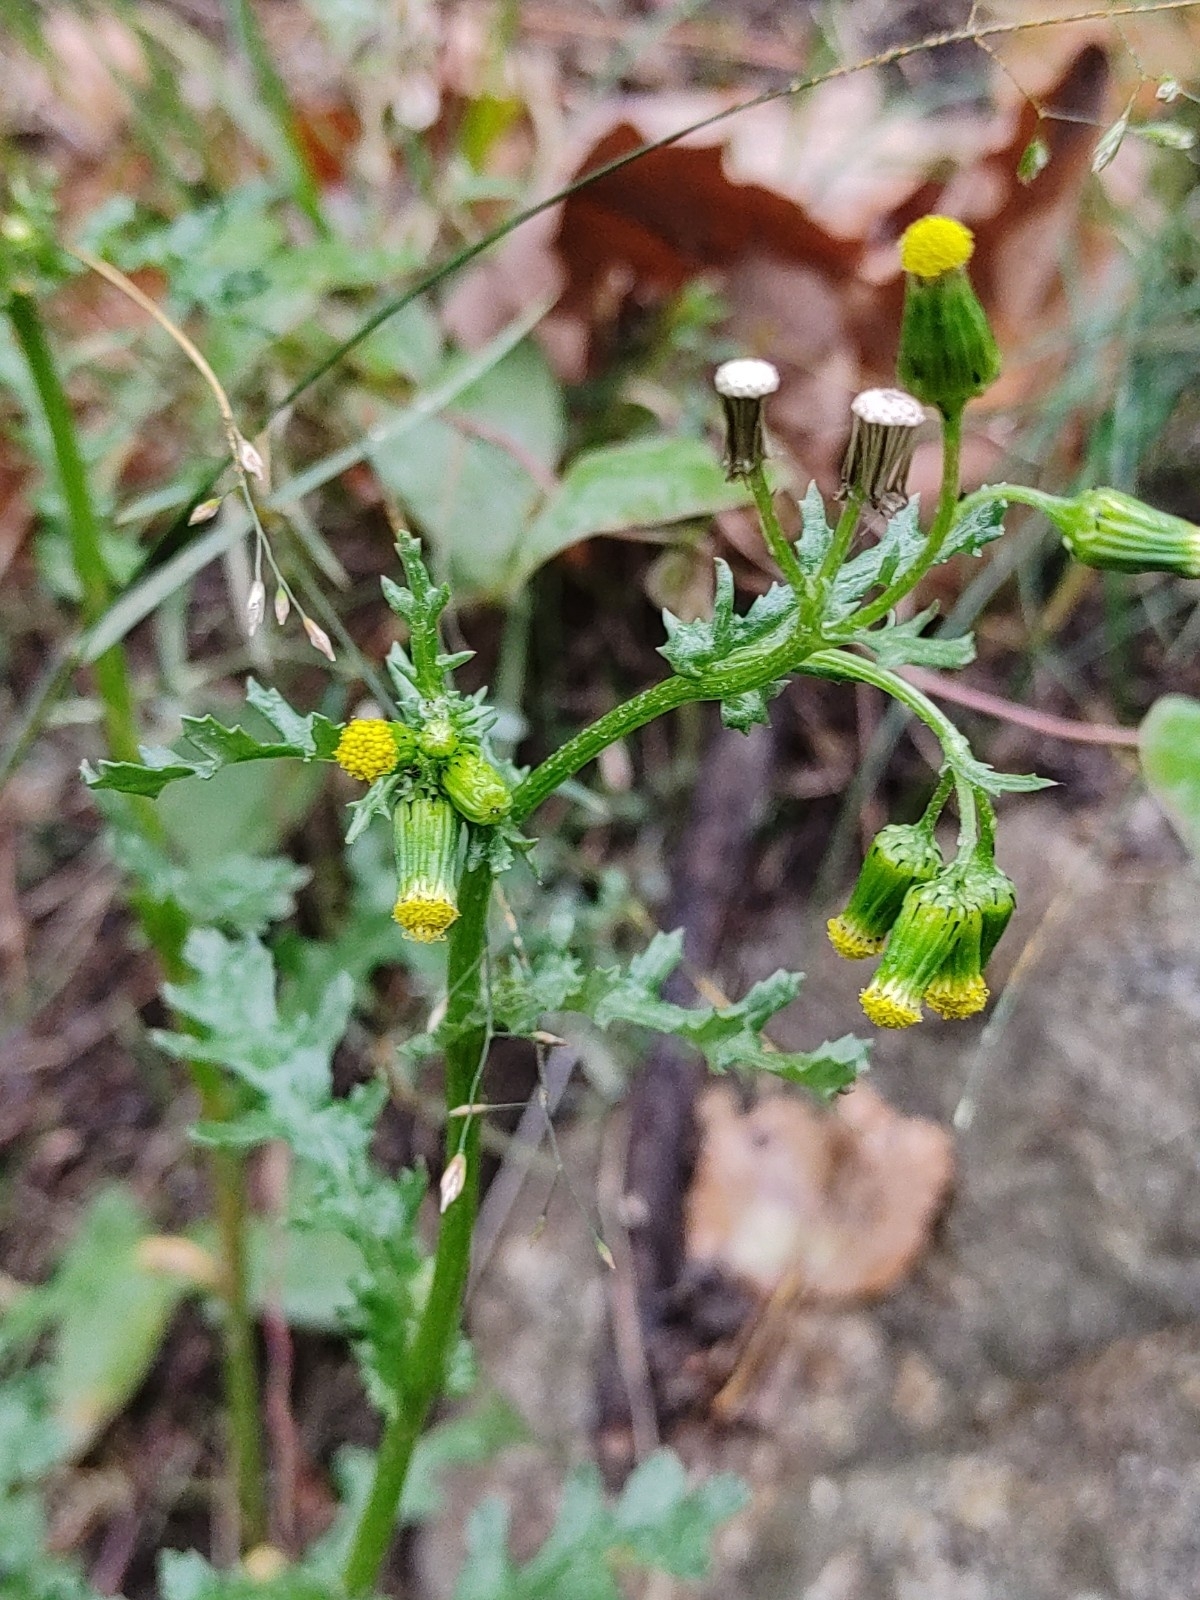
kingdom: Plantae
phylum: Tracheophyta
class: Magnoliopsida
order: Asterales
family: Asteraceae
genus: Senecio
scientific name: Senecio vulgaris
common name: Old-man-in-the-spring
